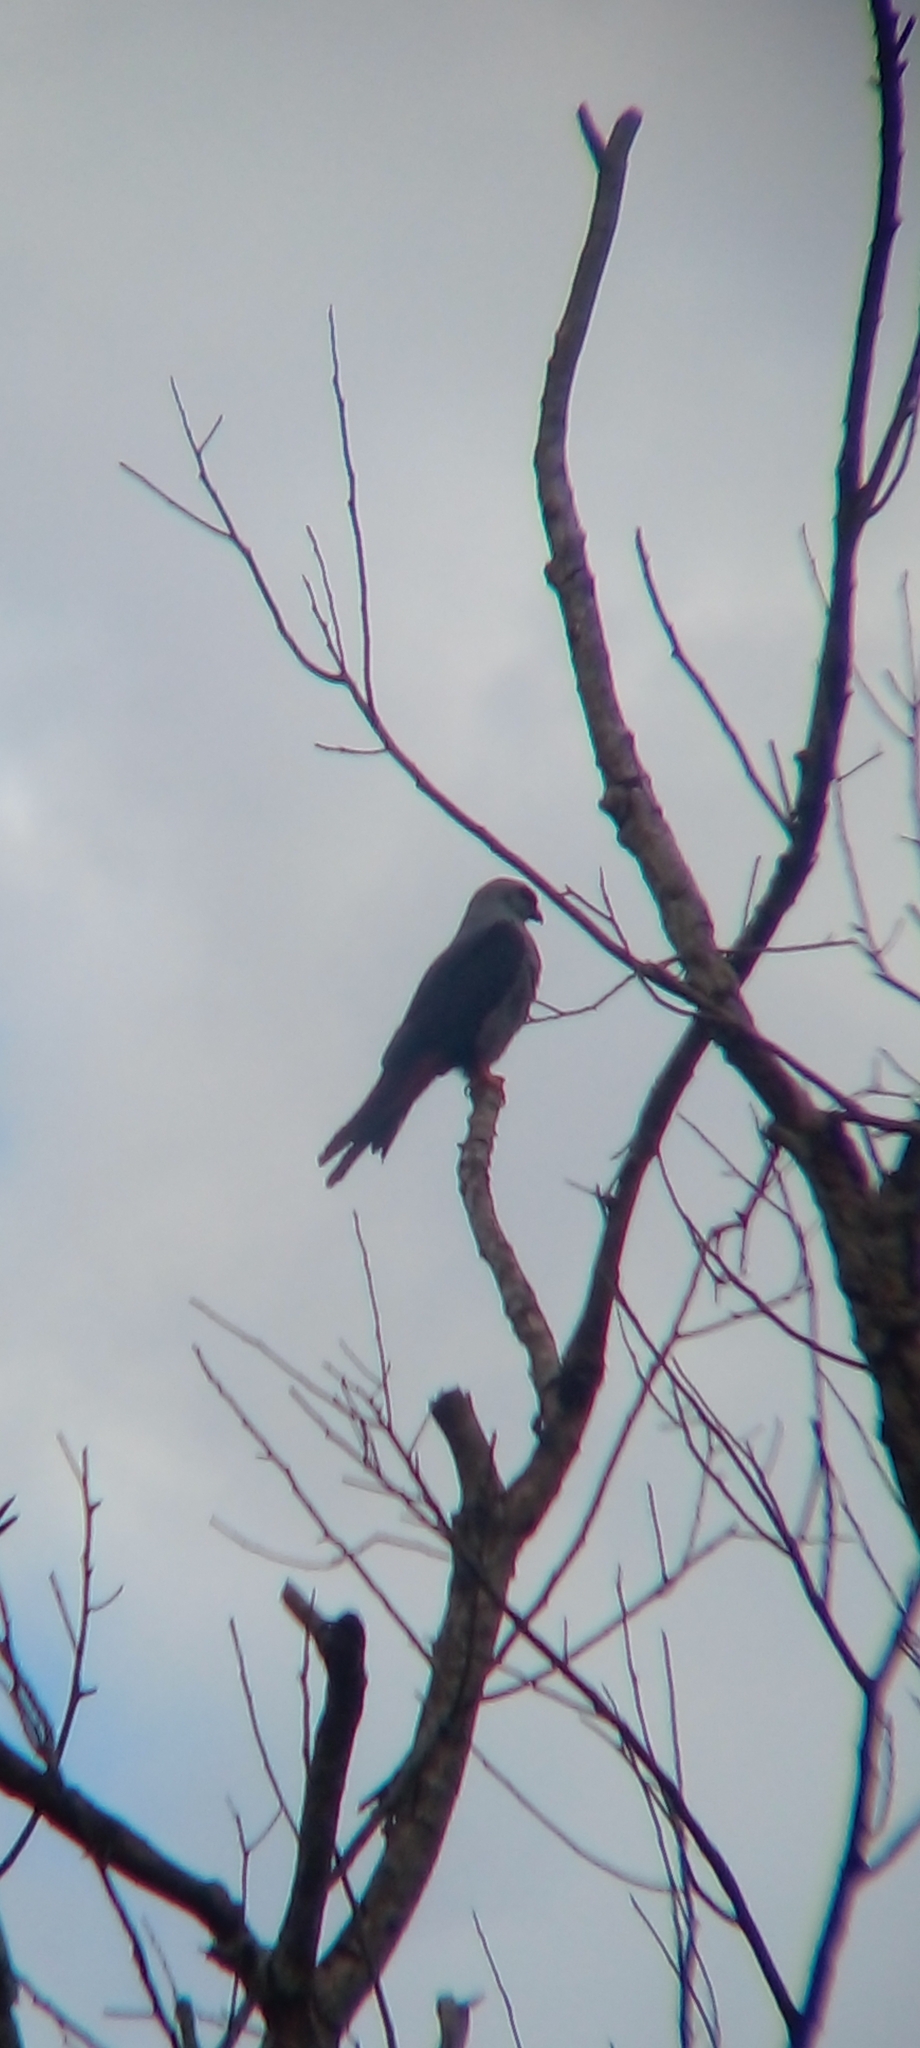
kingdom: Animalia
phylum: Chordata
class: Aves
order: Accipitriformes
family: Accipitridae
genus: Ictinia
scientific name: Ictinia plumbea
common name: Plumbeous kite
